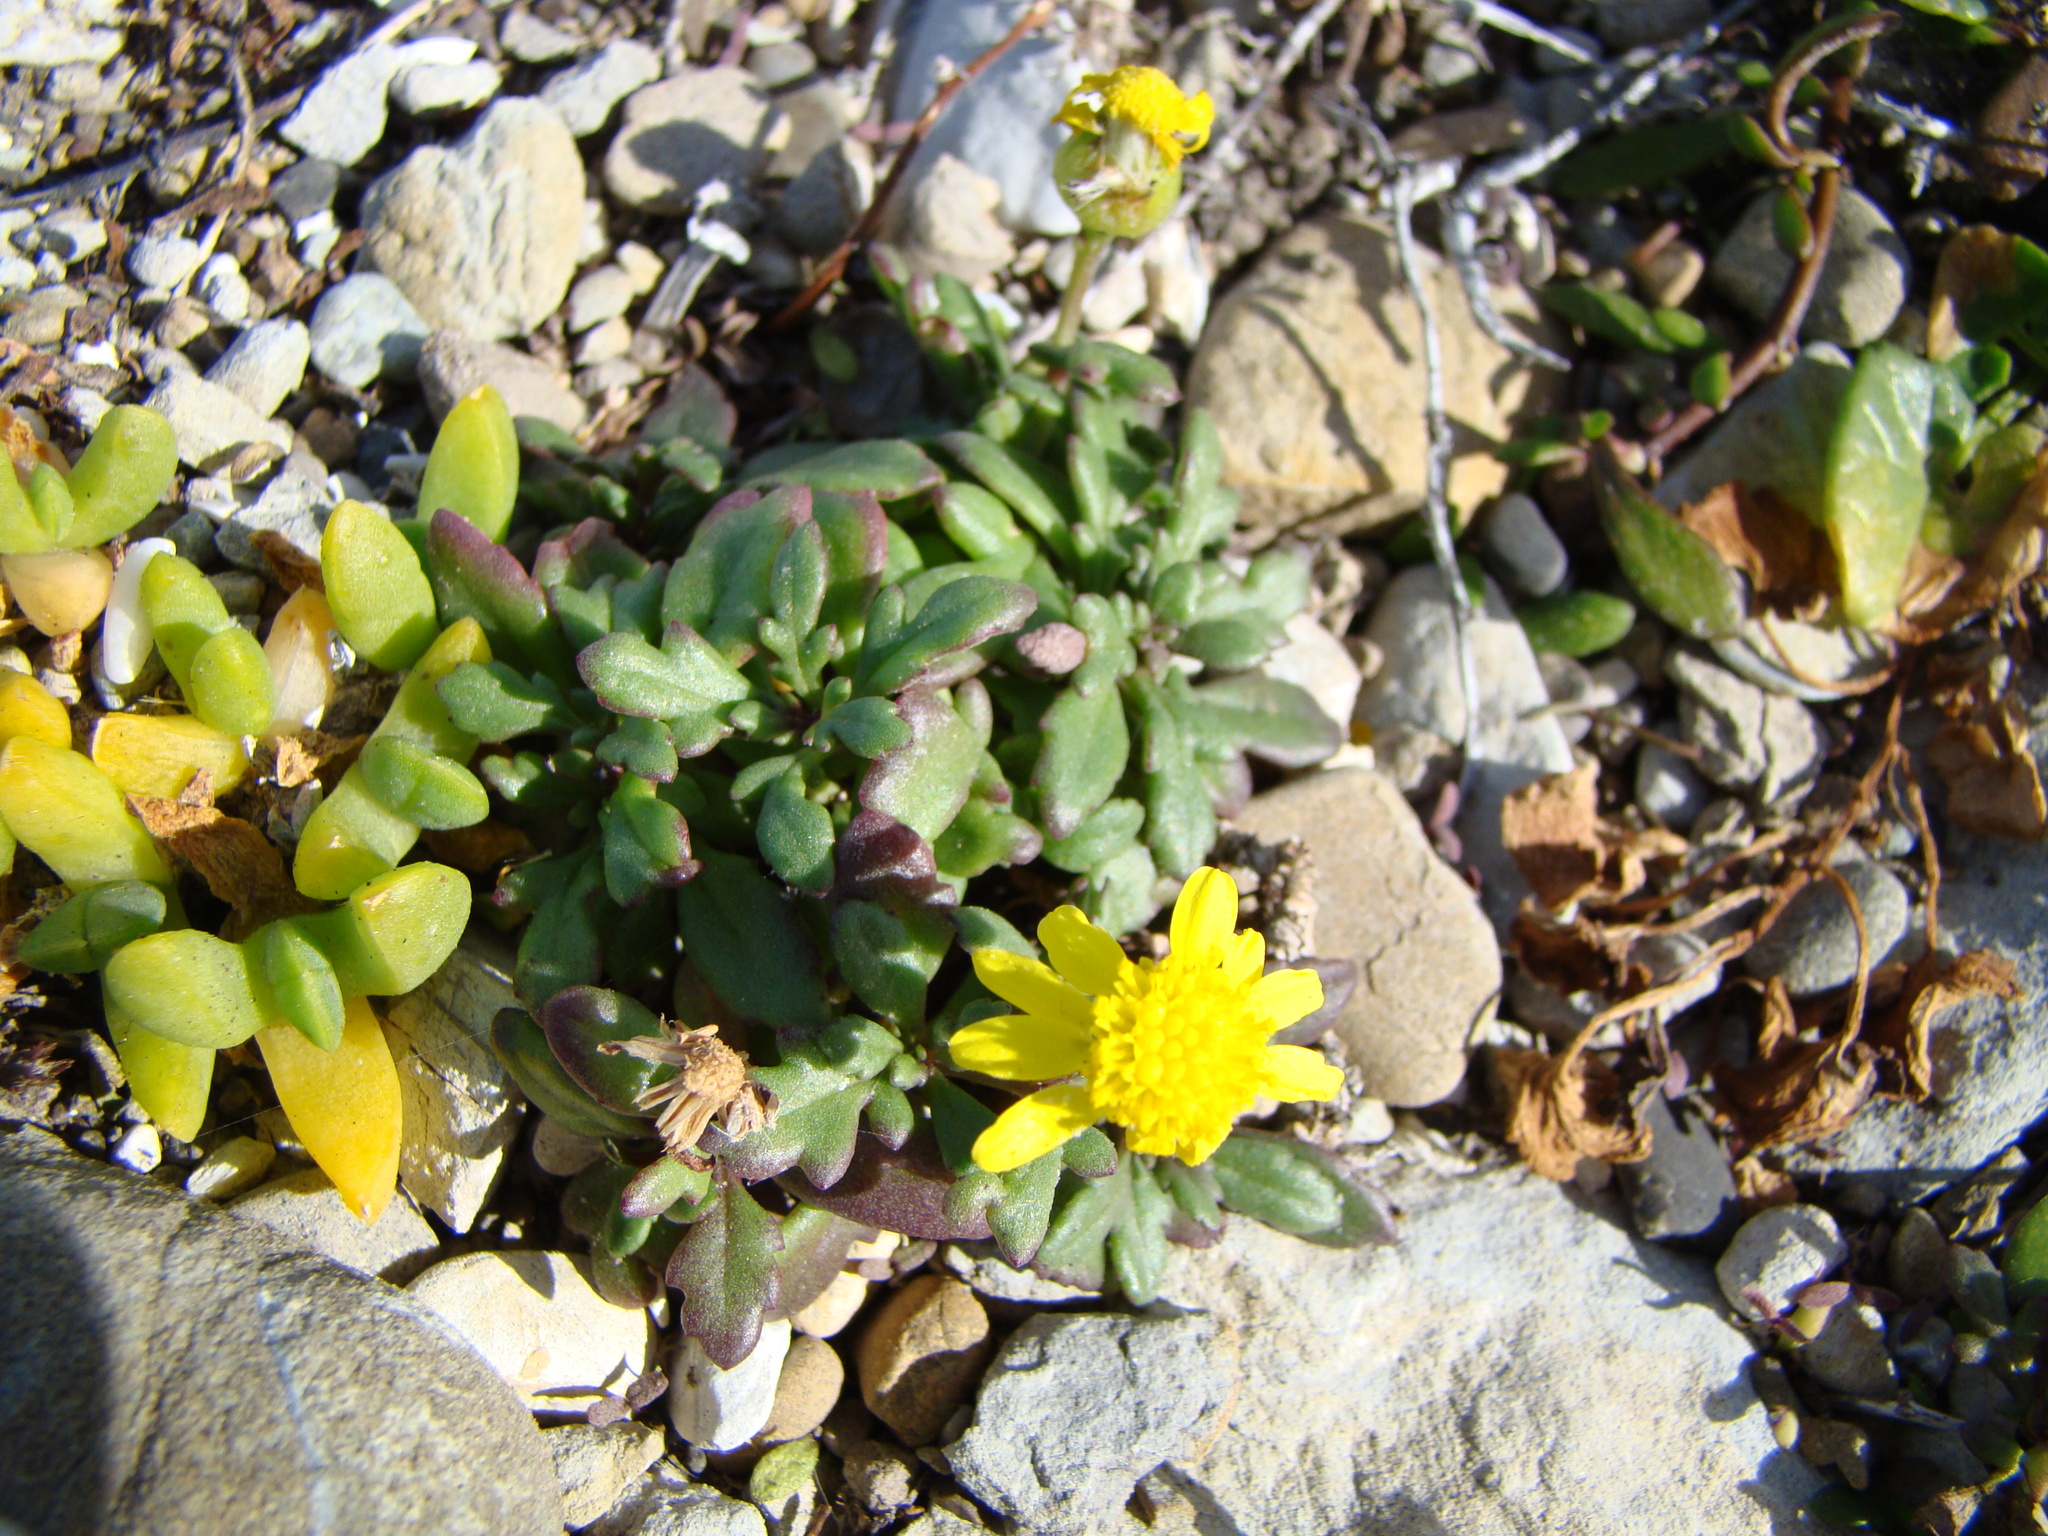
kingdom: Plantae
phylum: Tracheophyta
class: Magnoliopsida
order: Asterales
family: Asteraceae
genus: Senecio
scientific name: Senecio lautus
